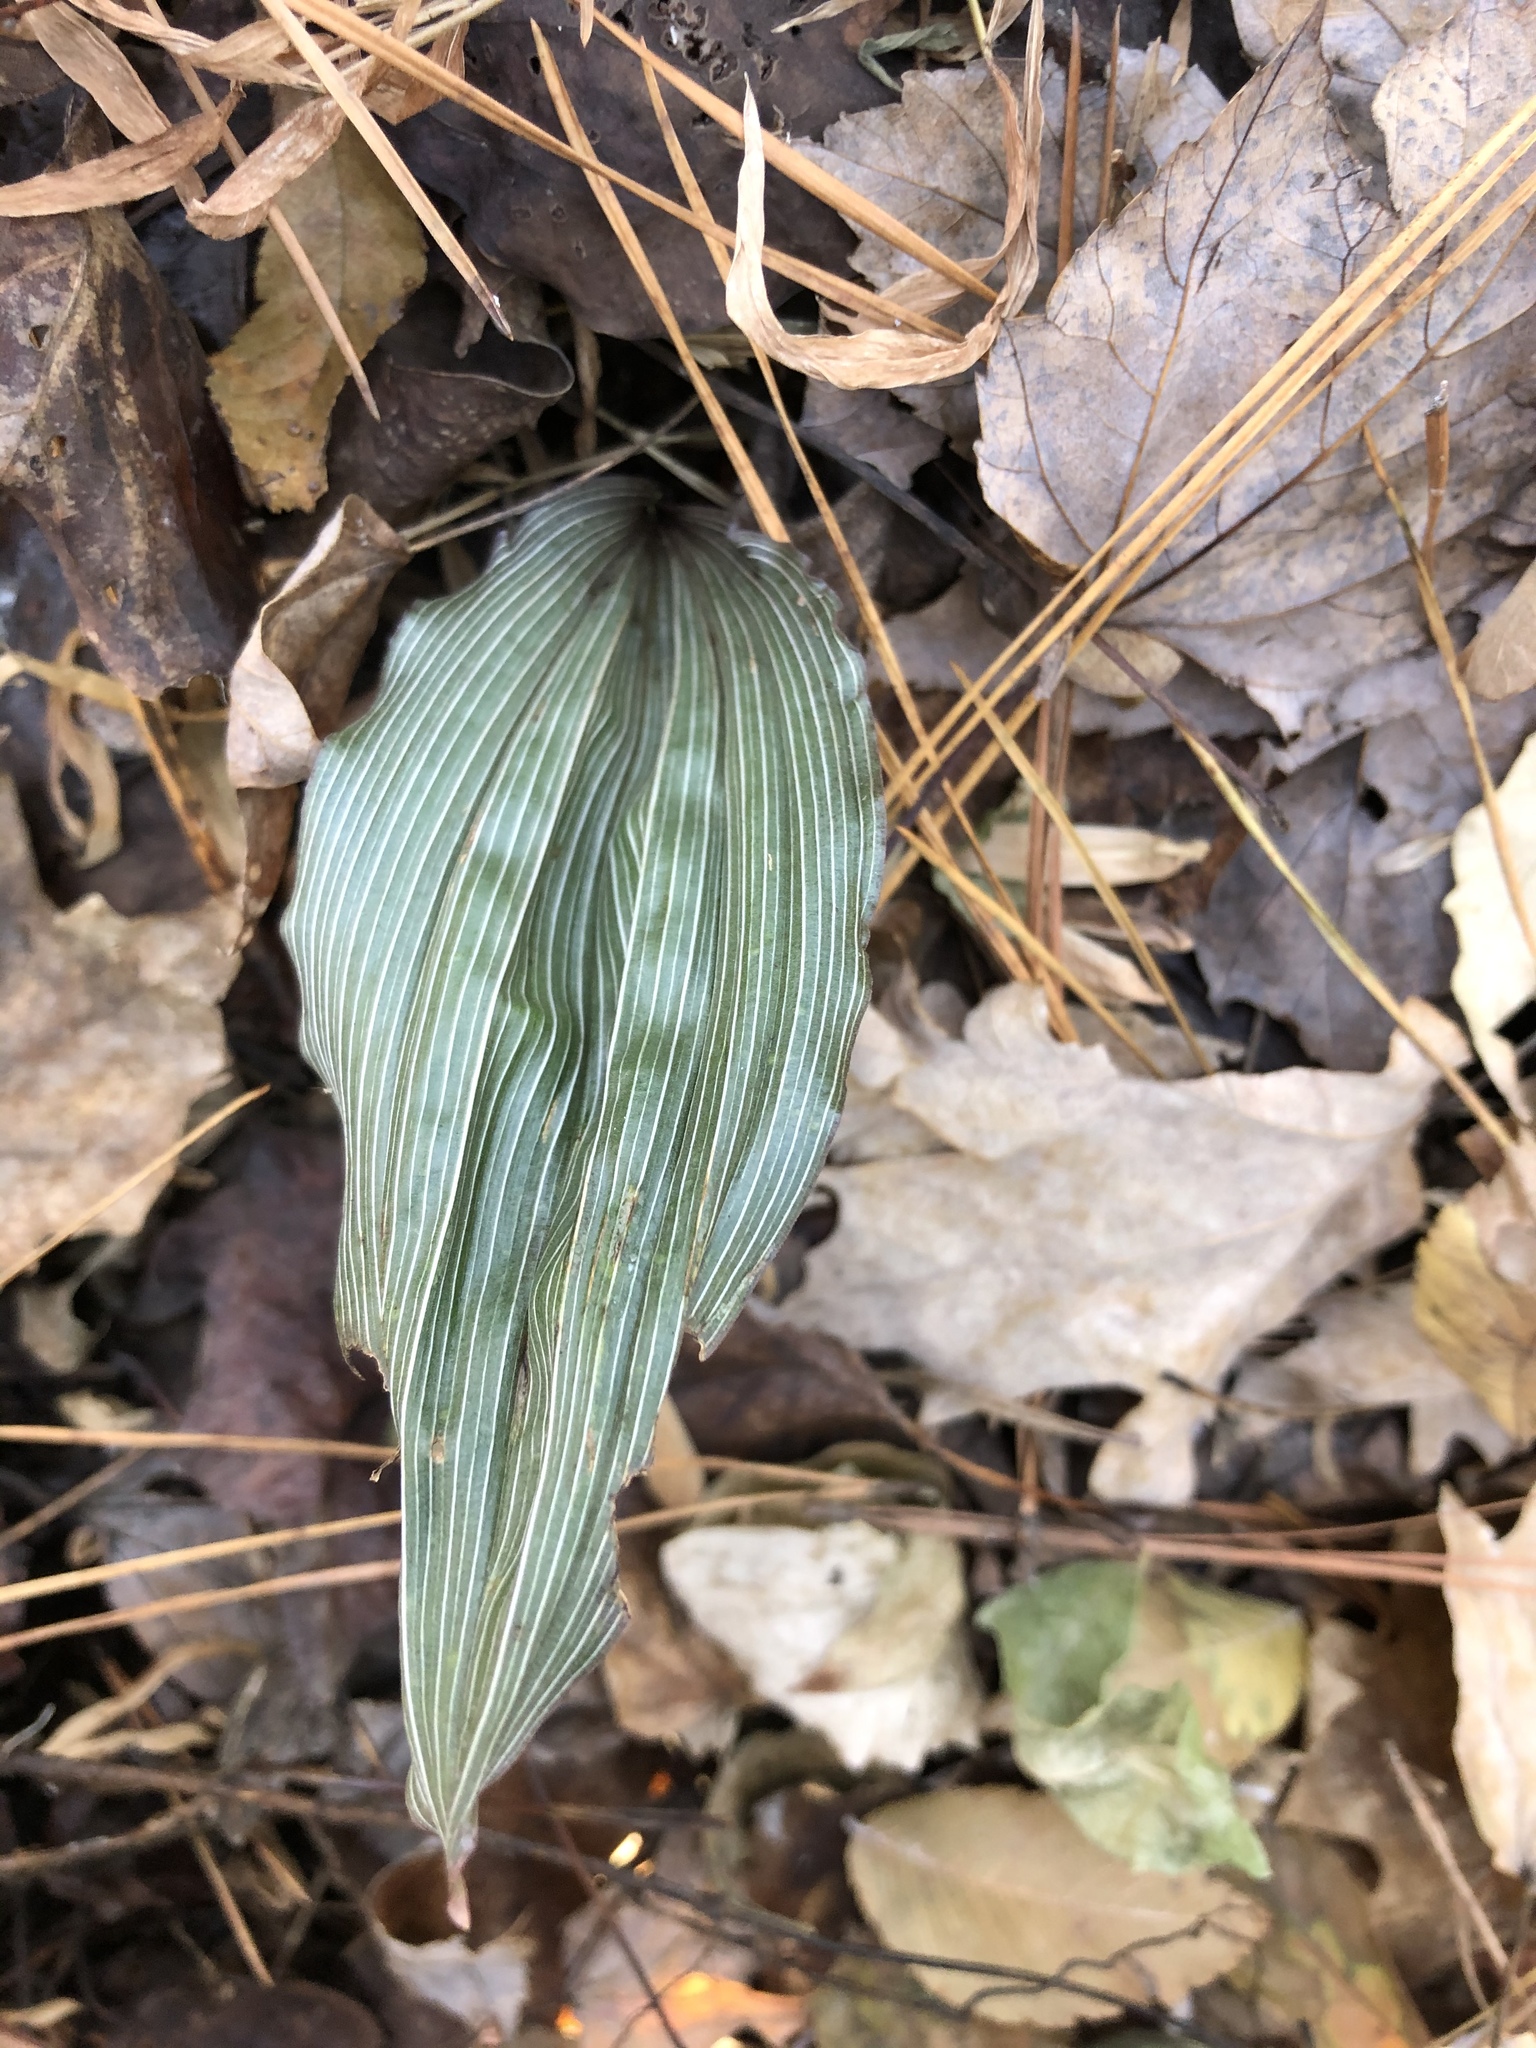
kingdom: Plantae
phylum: Tracheophyta
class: Liliopsida
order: Asparagales
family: Orchidaceae
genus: Aplectrum
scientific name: Aplectrum hyemale
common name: Adam-and-eve
